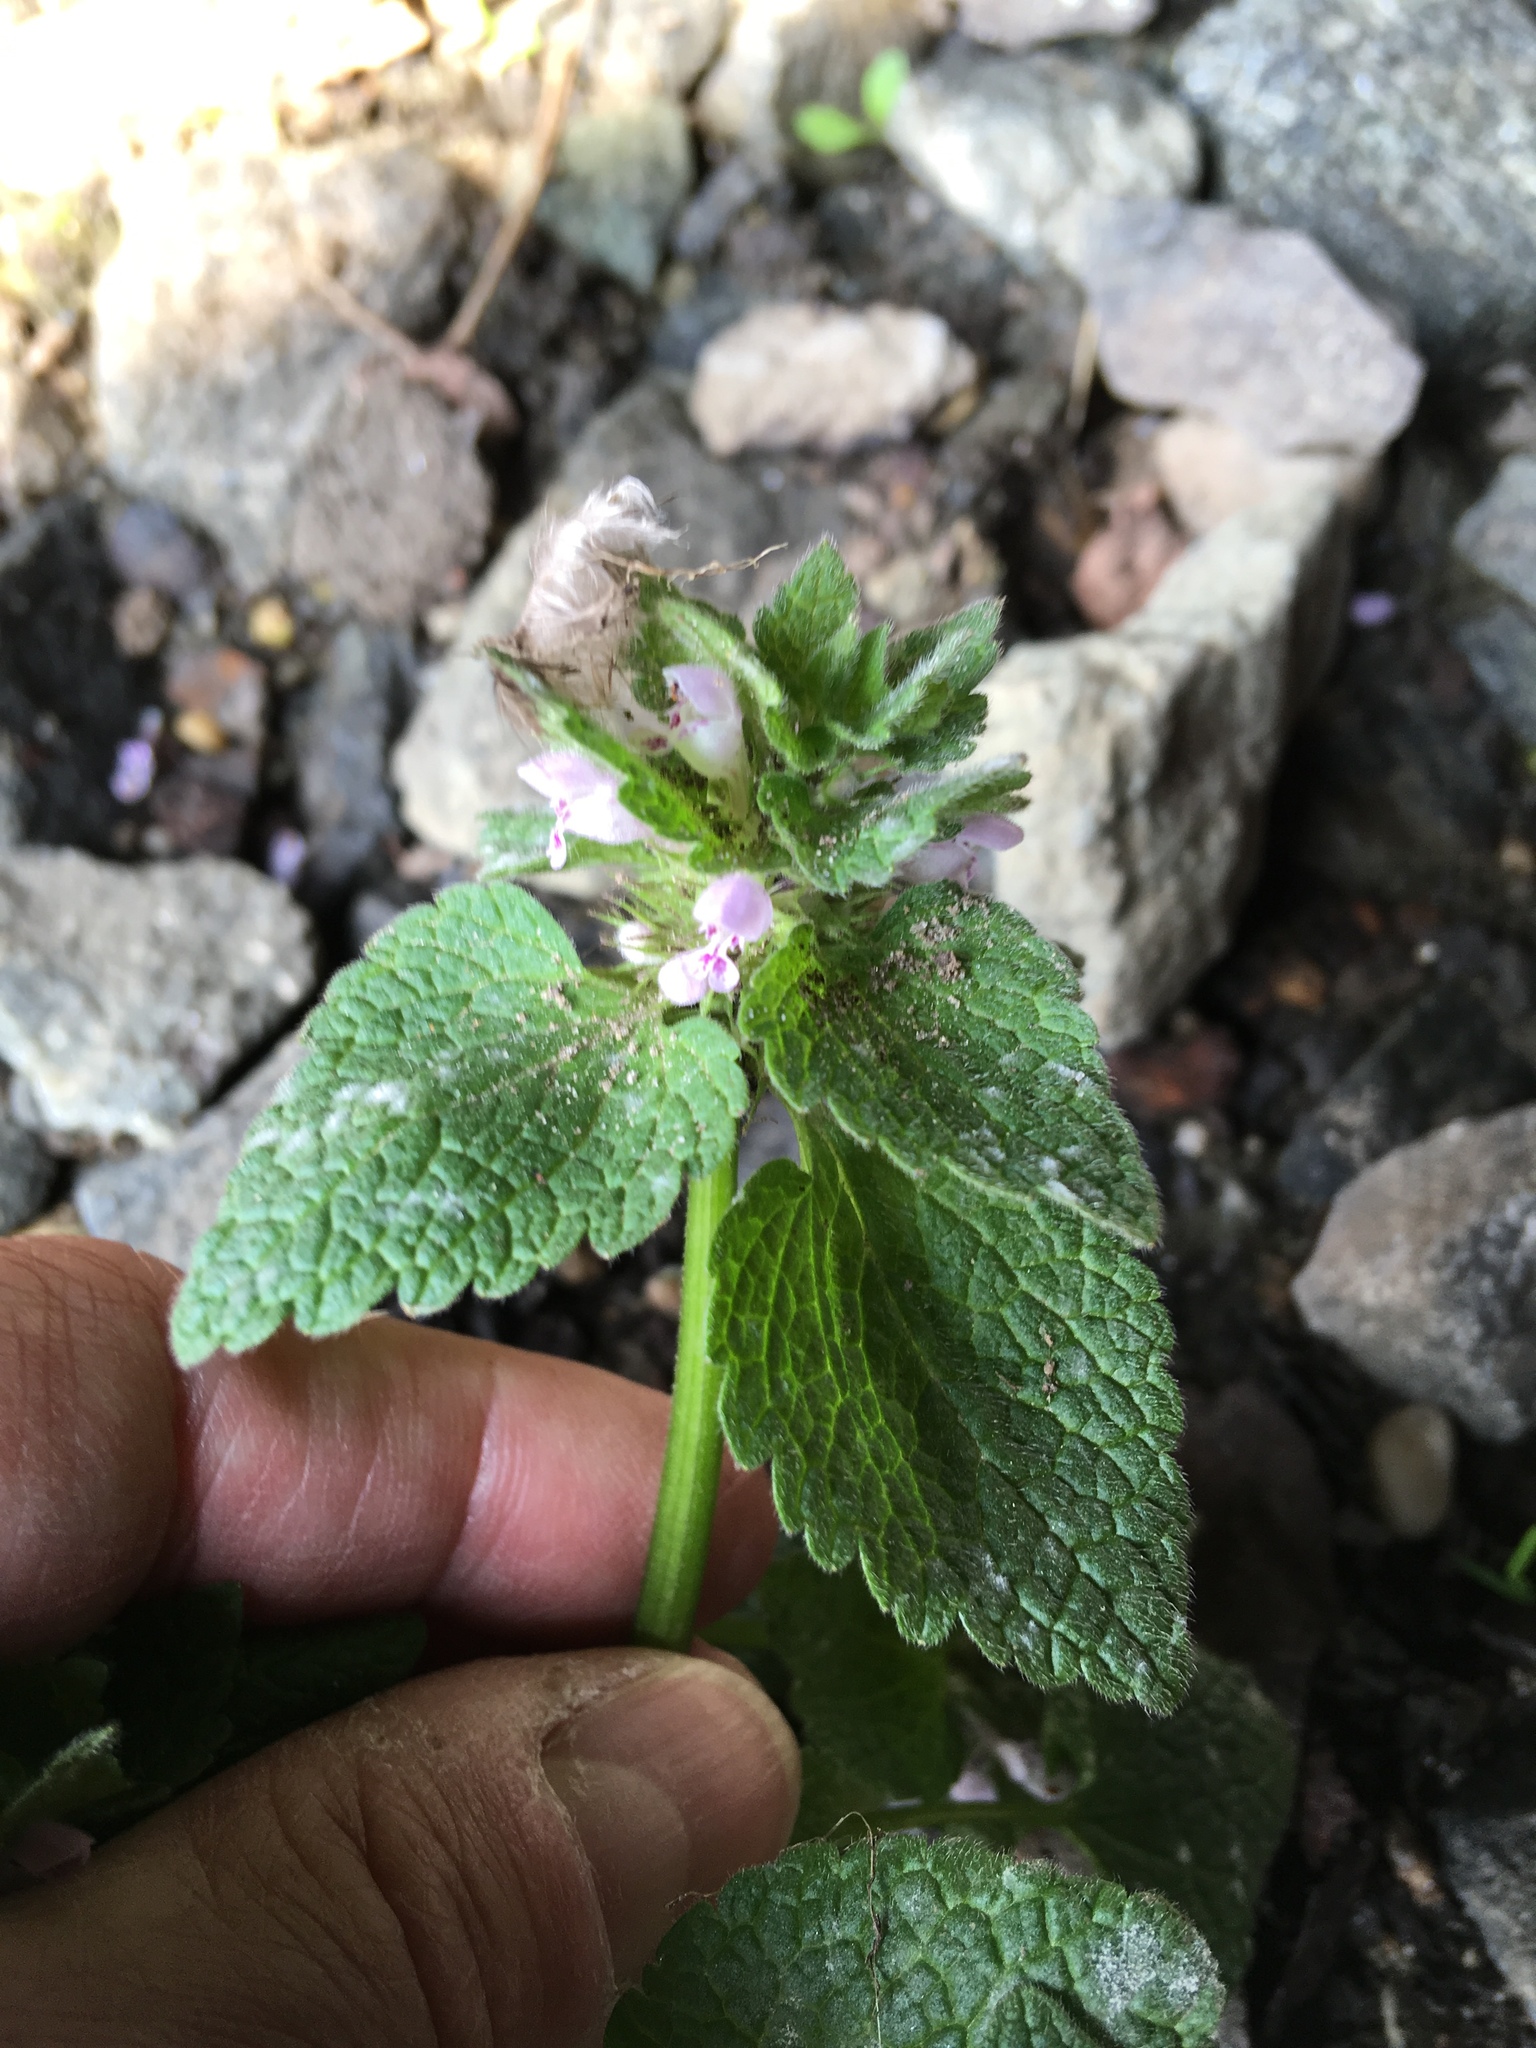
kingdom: Plantae
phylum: Tracheophyta
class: Magnoliopsida
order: Lamiales
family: Lamiaceae
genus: Lamium
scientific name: Lamium purpureum
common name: Red dead-nettle
